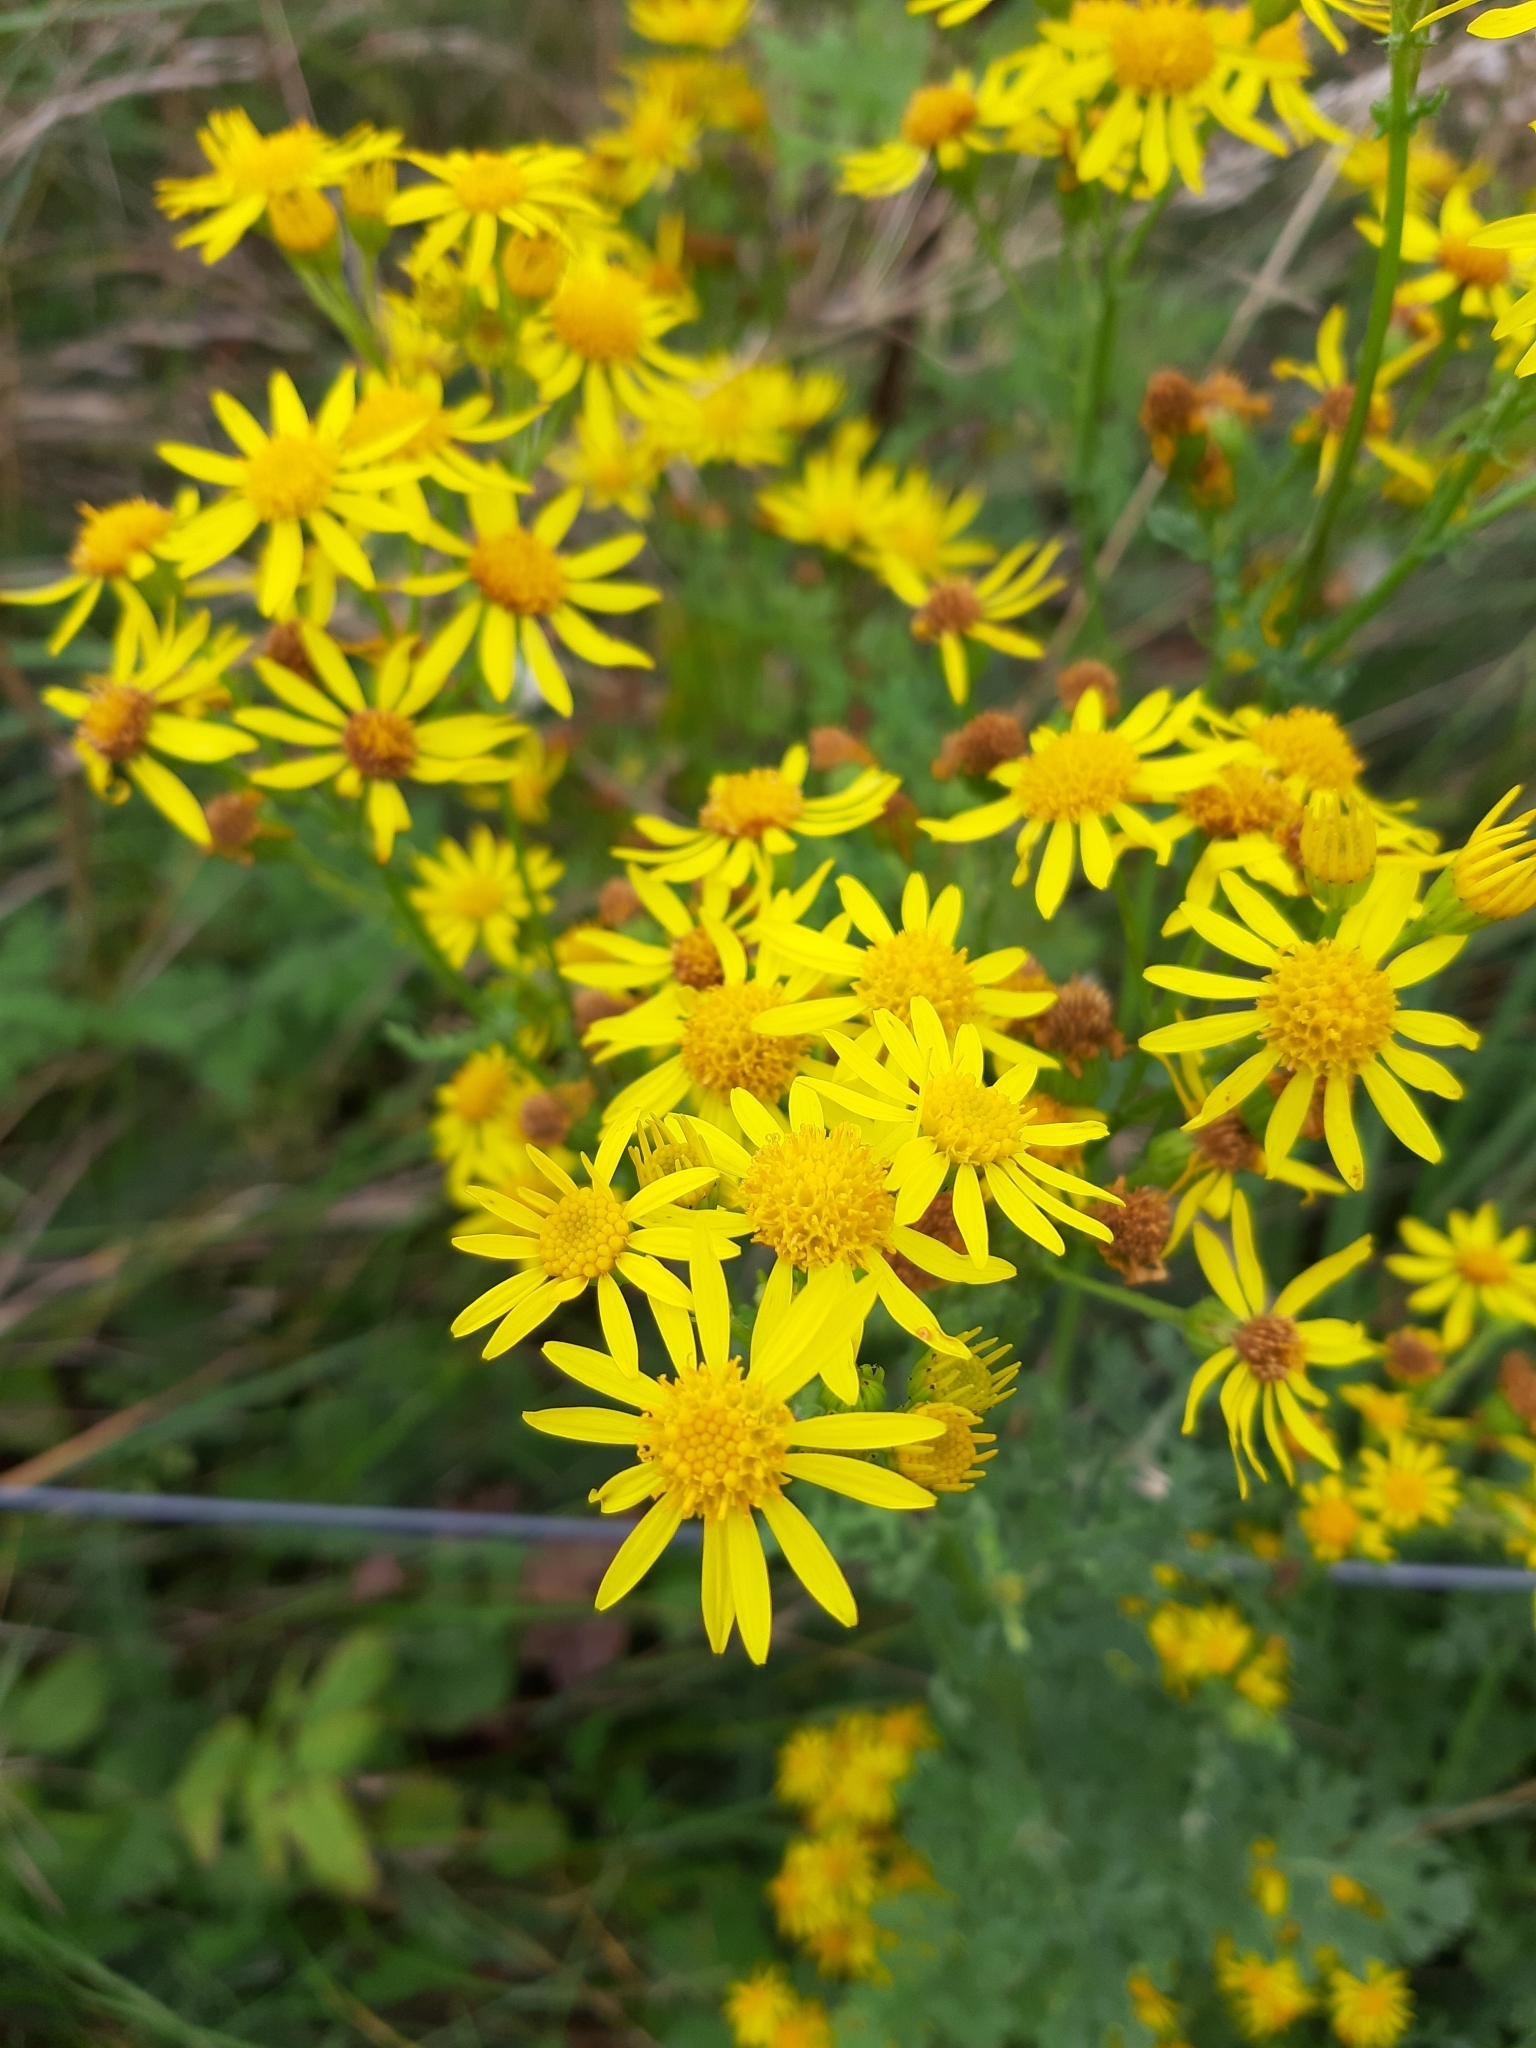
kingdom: Plantae
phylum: Tracheophyta
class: Magnoliopsida
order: Asterales
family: Asteraceae
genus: Jacobaea
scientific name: Jacobaea vulgaris
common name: Stinking willie
